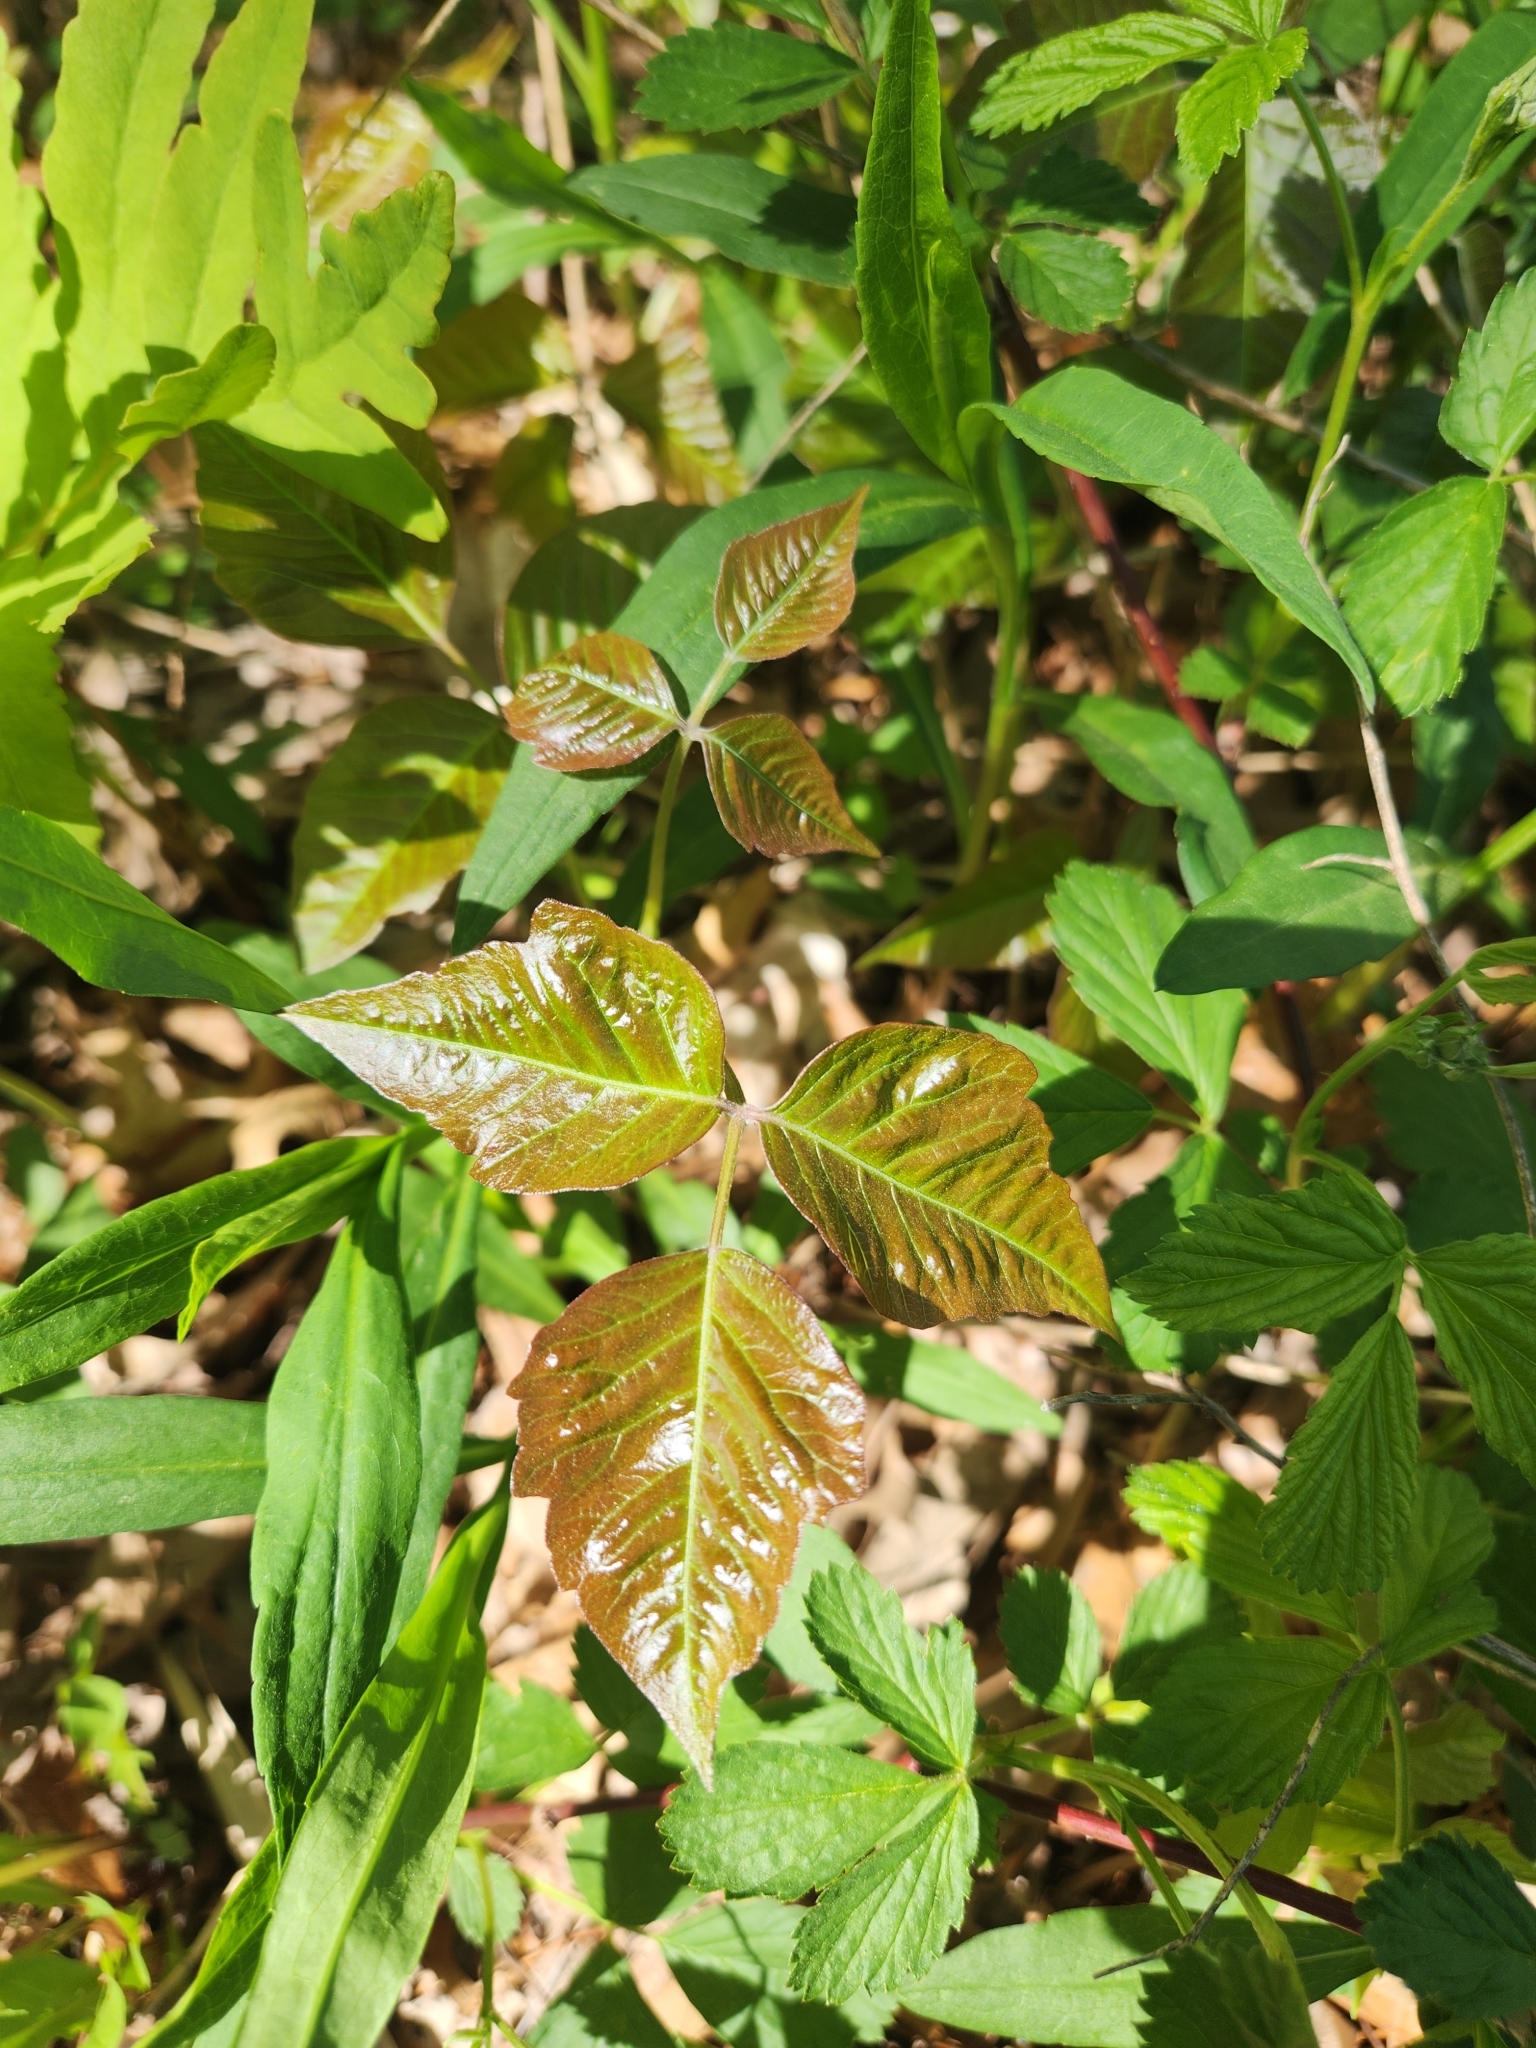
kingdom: Plantae
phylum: Tracheophyta
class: Magnoliopsida
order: Sapindales
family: Anacardiaceae
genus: Toxicodendron
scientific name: Toxicodendron radicans
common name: Poison ivy
